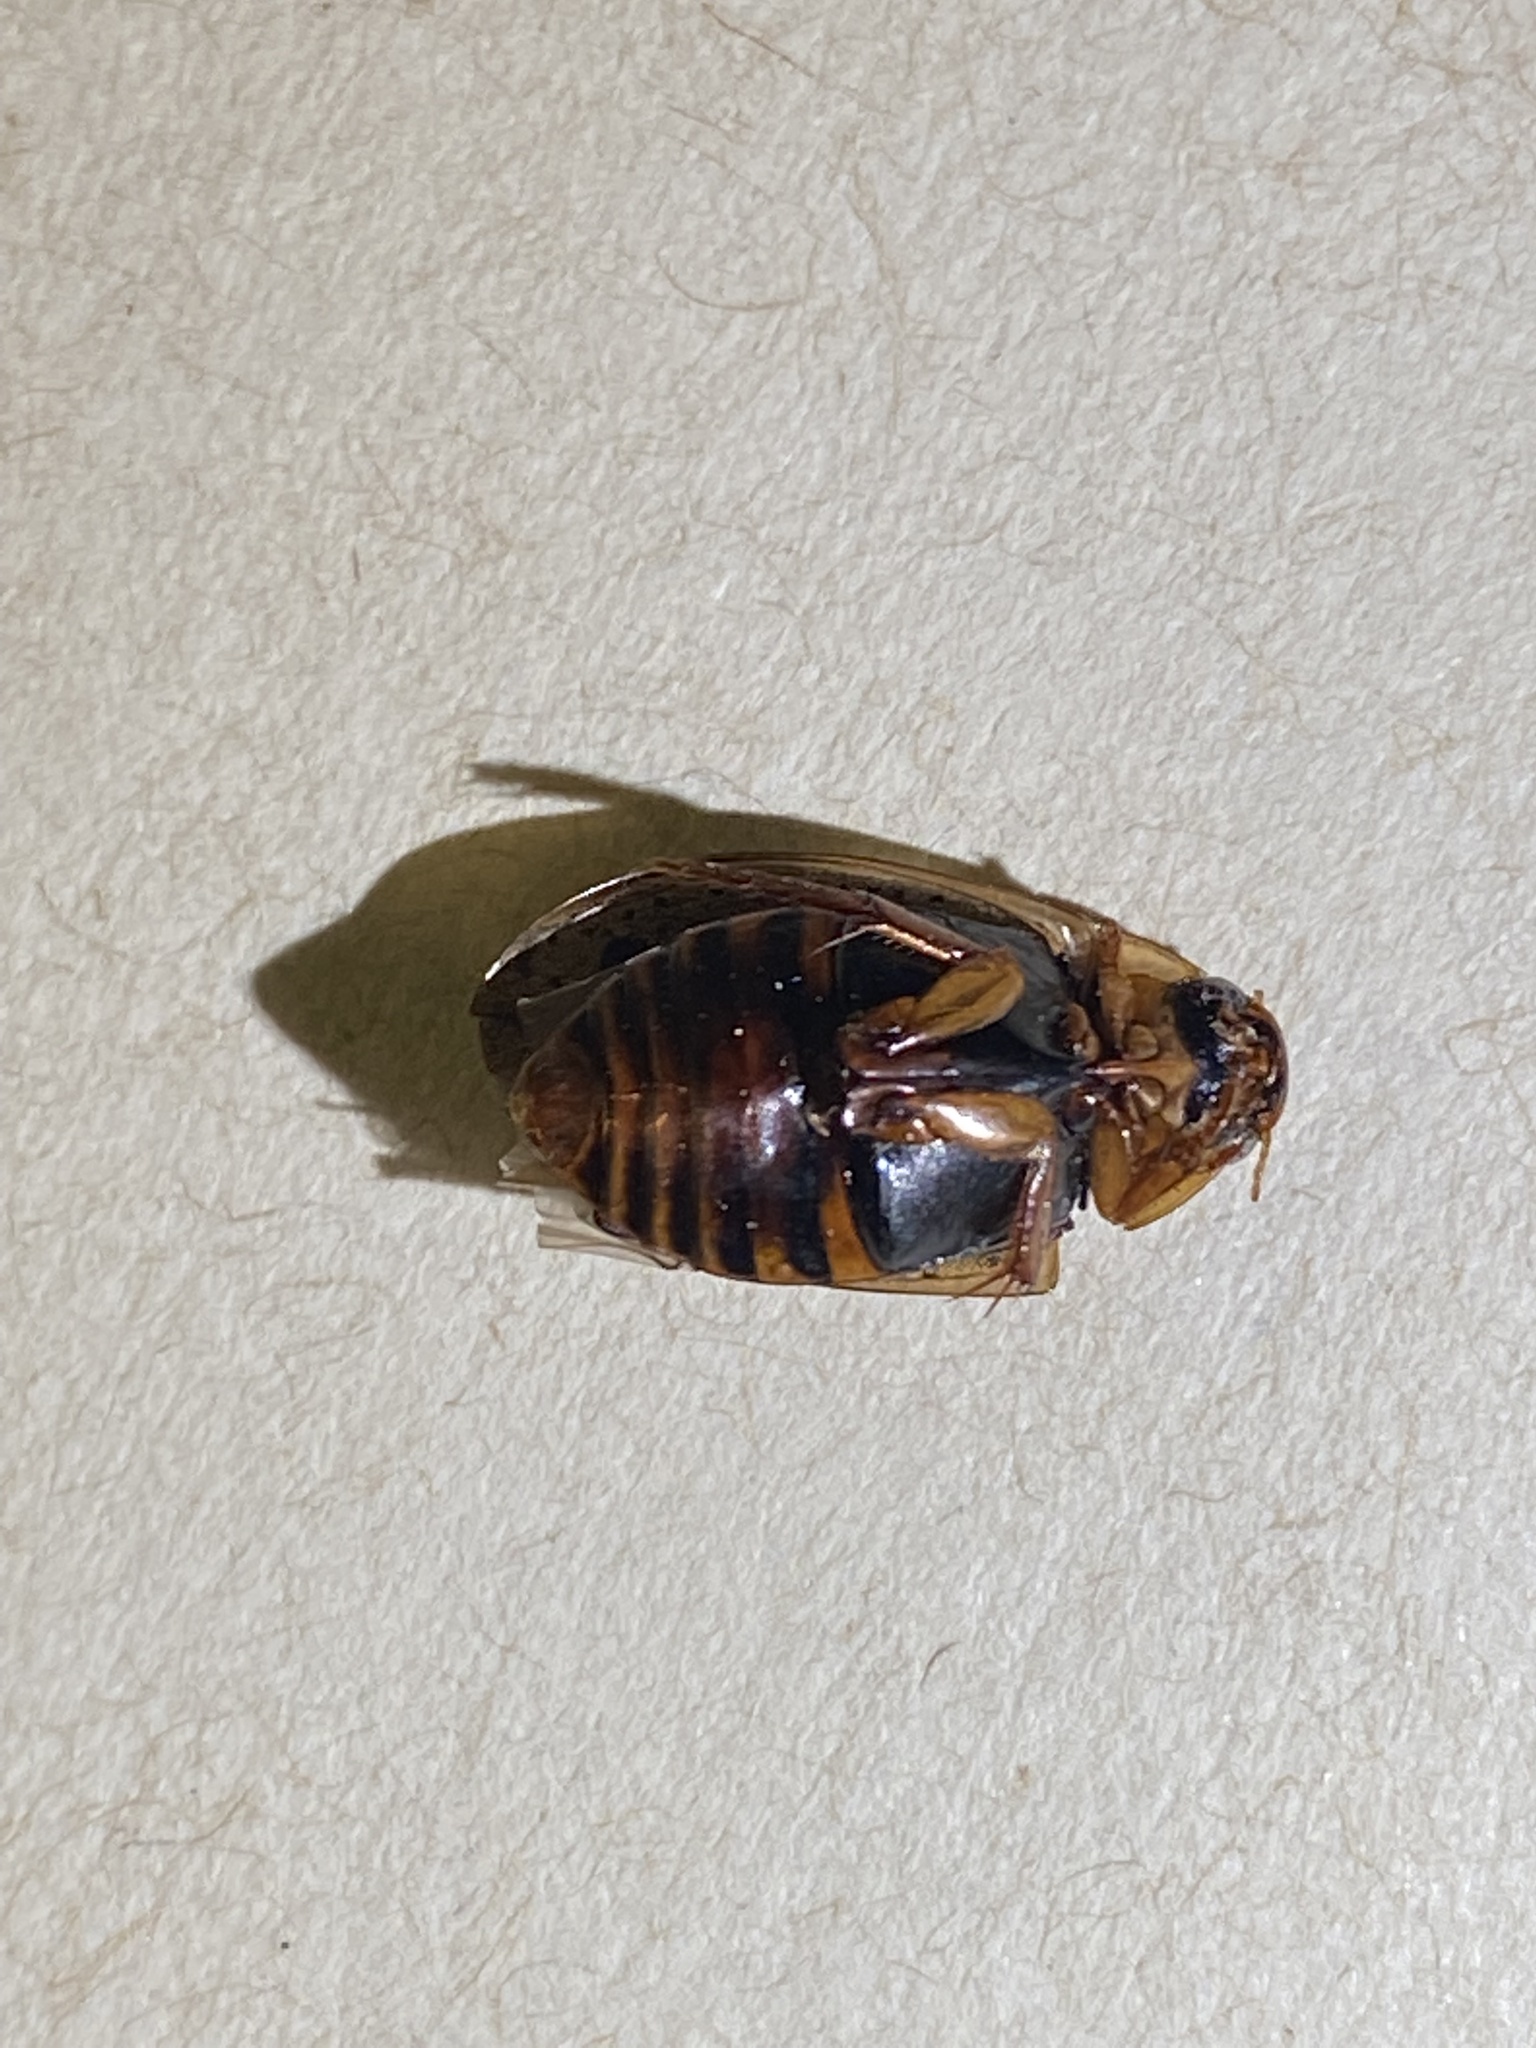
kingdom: Animalia
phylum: Arthropoda
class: Insecta
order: Coleoptera
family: Dytiscidae
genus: Rhantus
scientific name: Rhantus binotatus
